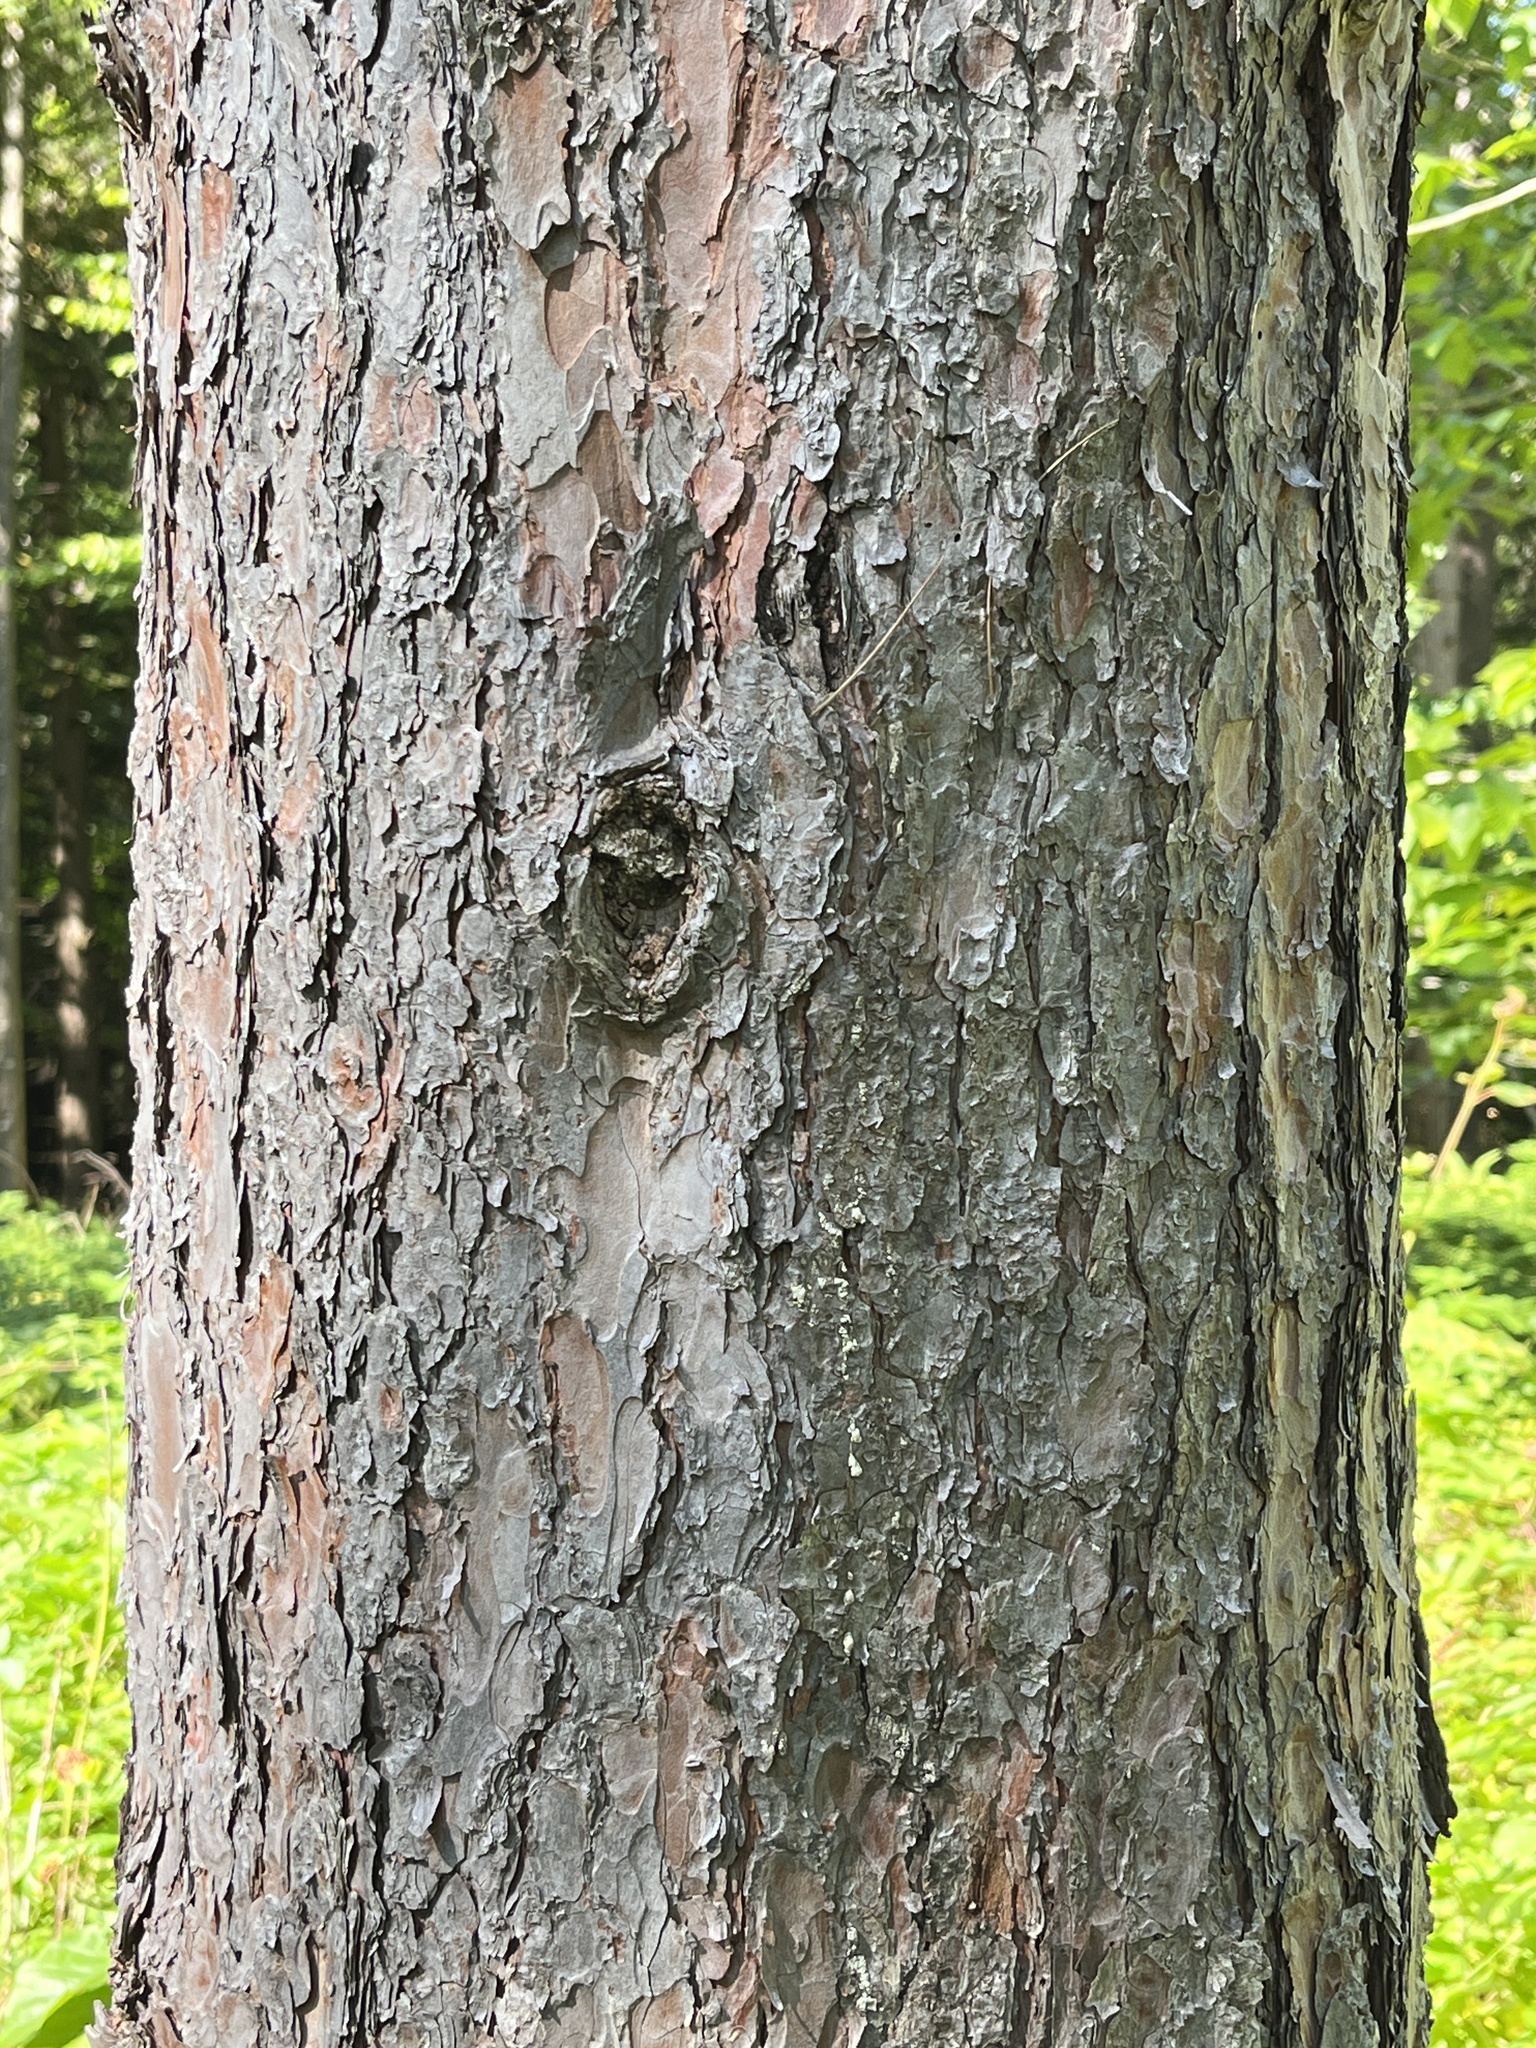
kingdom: Plantae
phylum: Tracheophyta
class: Pinopsida
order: Pinales
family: Pinaceae
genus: Pinus
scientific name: Pinus resinosa
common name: Norway pine
